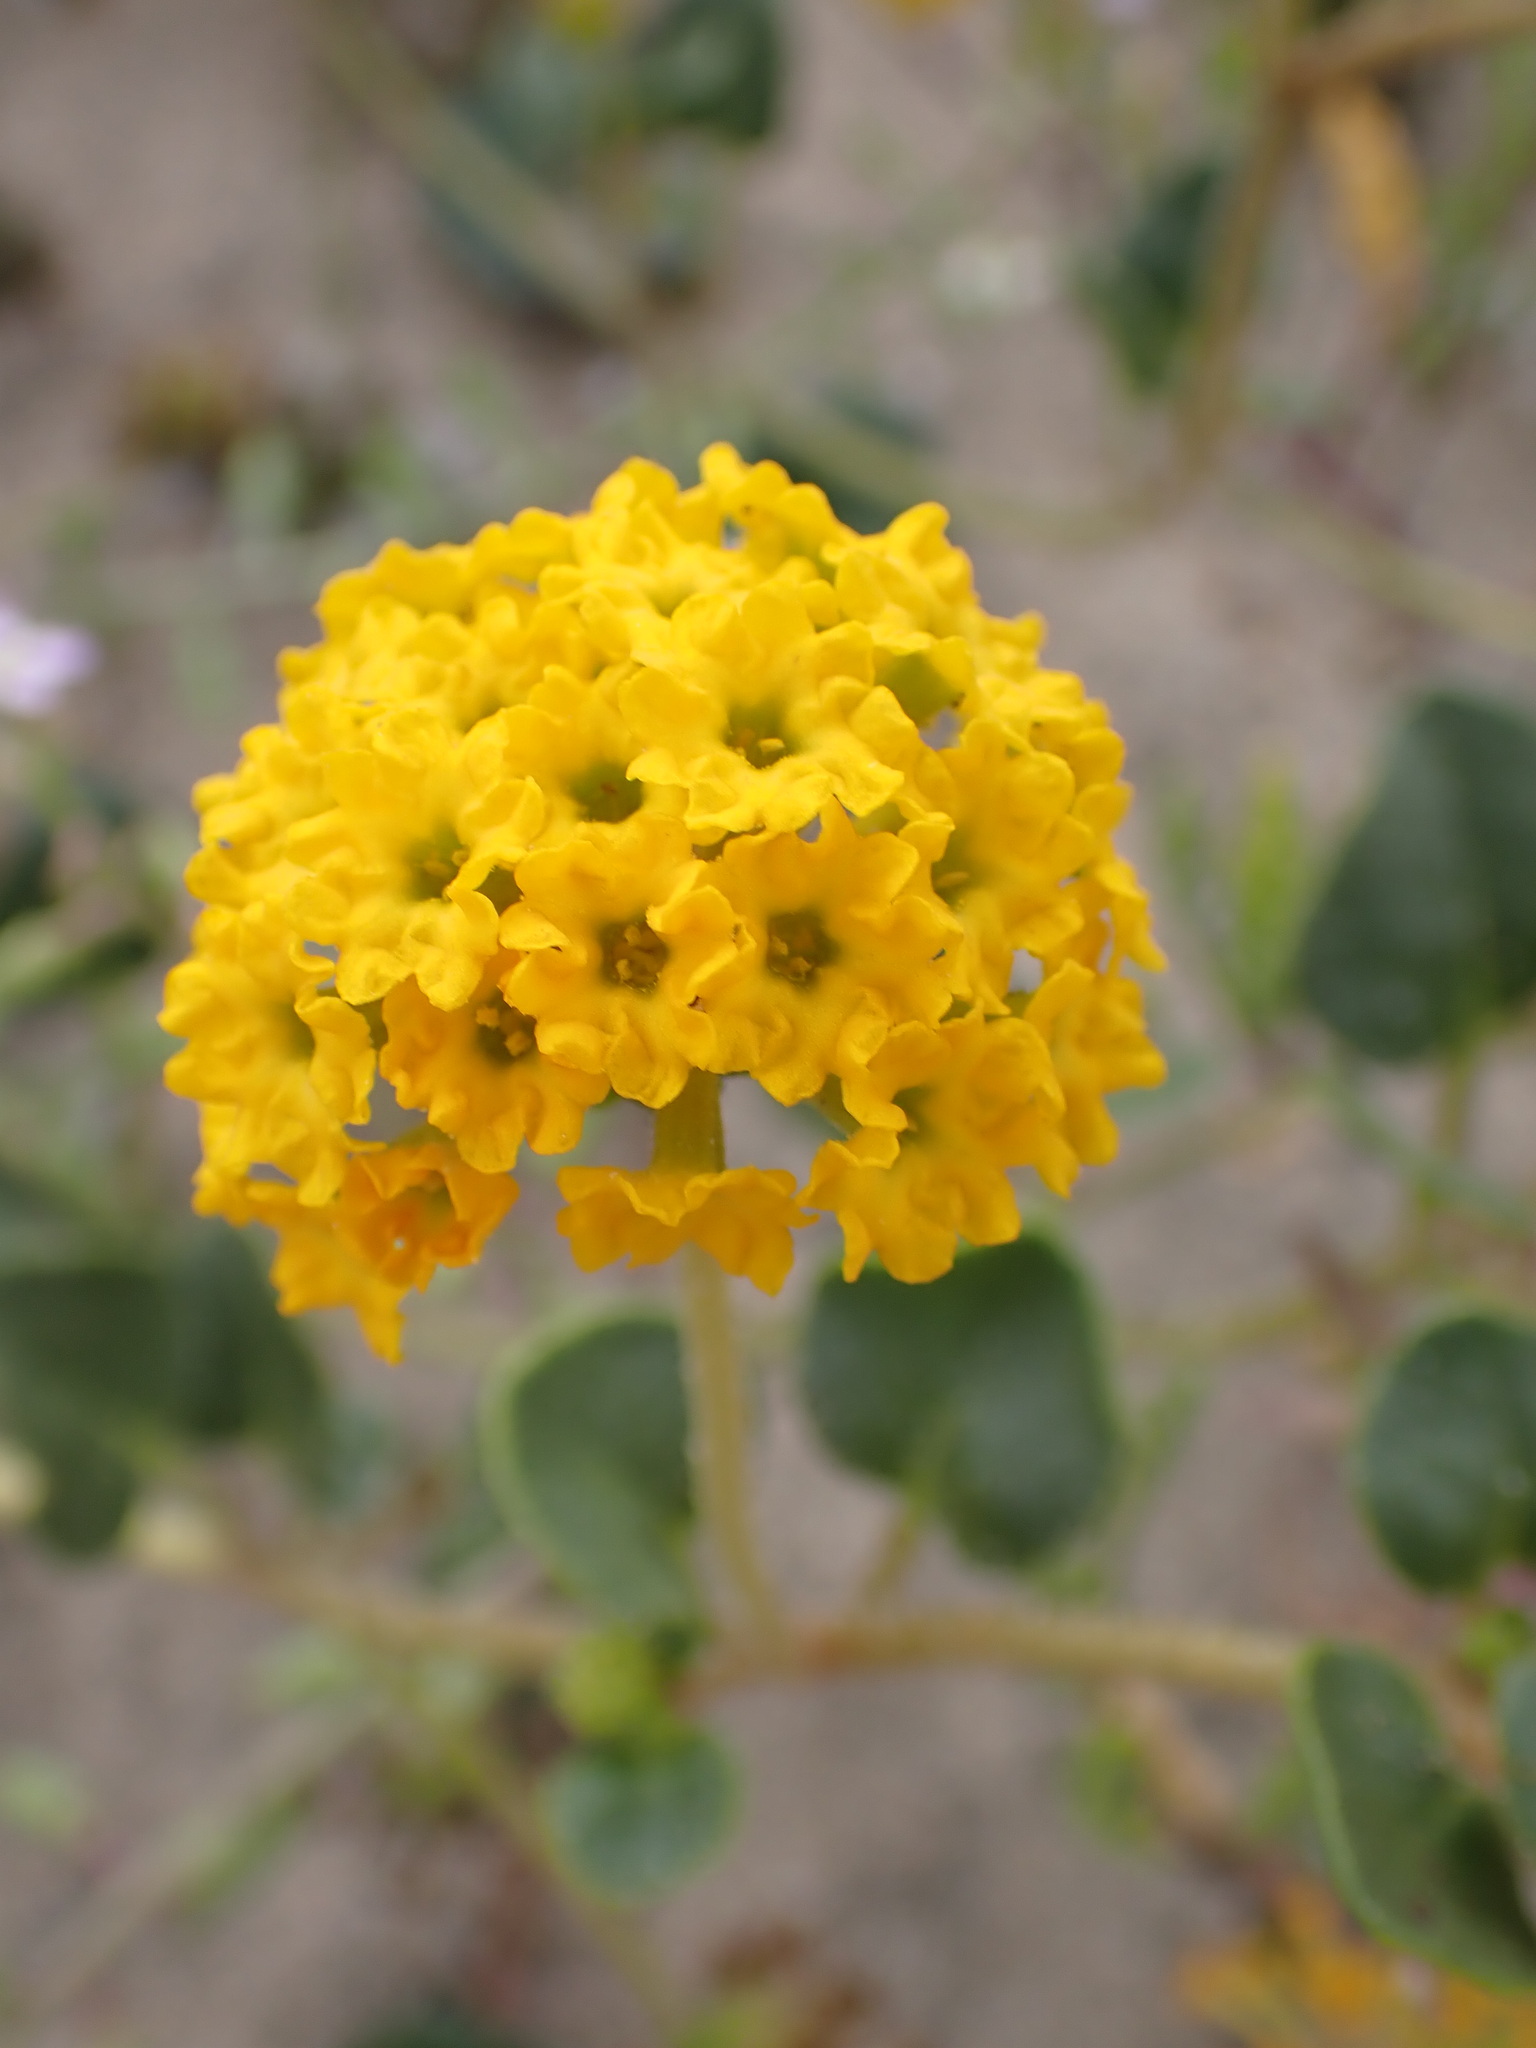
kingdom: Plantae
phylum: Tracheophyta
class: Magnoliopsida
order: Caryophyllales
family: Nyctaginaceae
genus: Abronia
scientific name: Abronia latifolia
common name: Yellow sand-verbena
